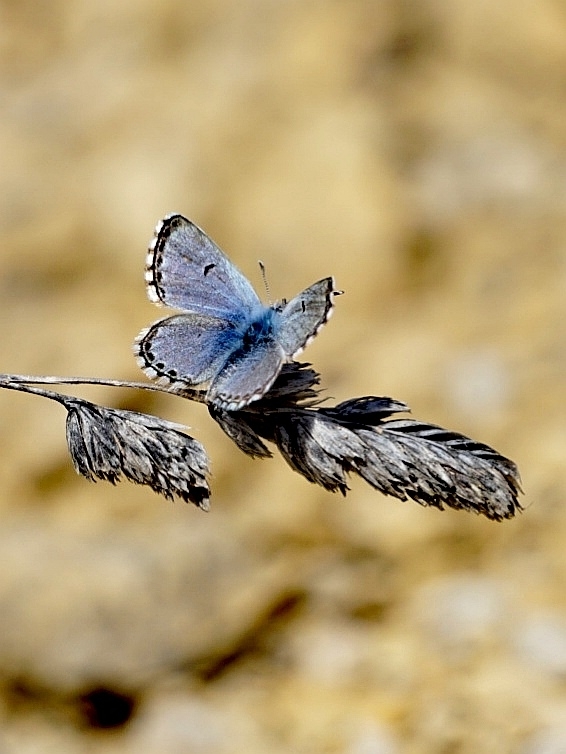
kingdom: Animalia
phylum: Arthropoda
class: Insecta
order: Lepidoptera
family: Lycaenidae
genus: Pseudophilotes
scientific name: Pseudophilotes baton
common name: Baton blue
